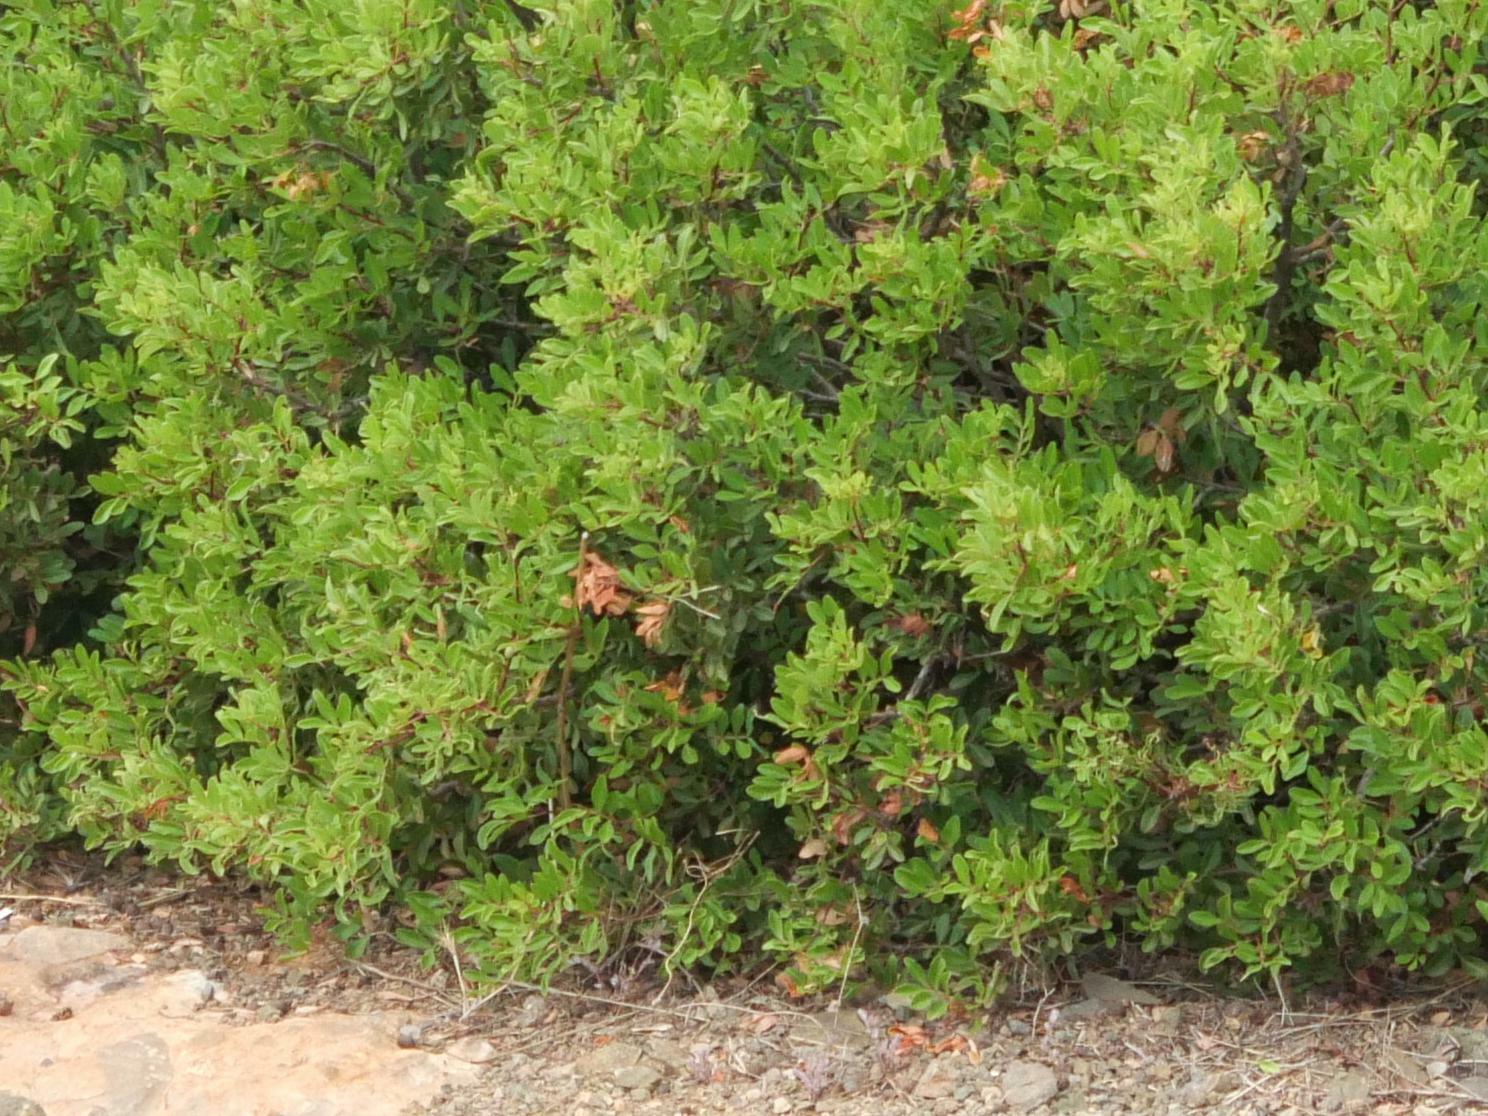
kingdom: Plantae
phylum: Tracheophyta
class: Magnoliopsida
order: Sapindales
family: Anacardiaceae
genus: Pistacia
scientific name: Pistacia lentiscus
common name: Lentisk
